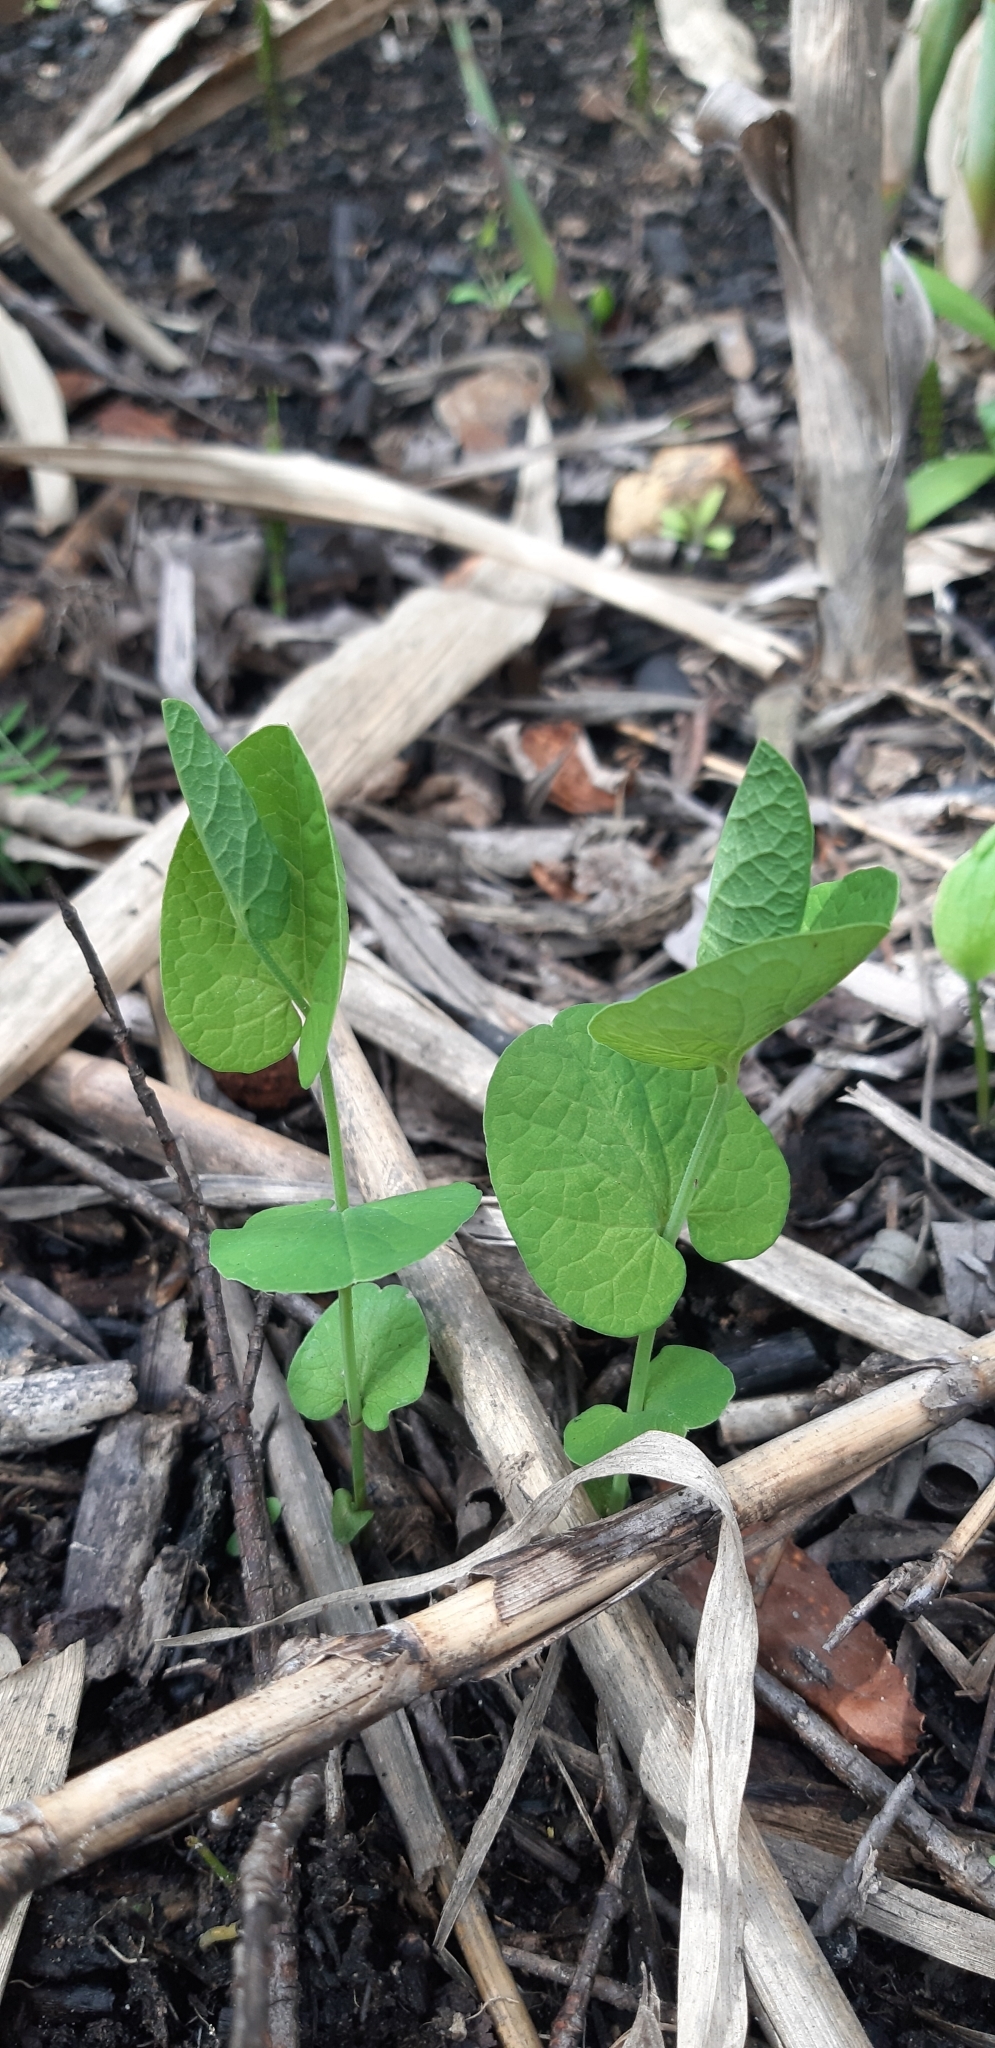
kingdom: Plantae
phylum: Tracheophyta
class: Magnoliopsida
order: Piperales
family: Aristolochiaceae
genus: Aristolochia
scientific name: Aristolochia rotunda
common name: Smearwort
